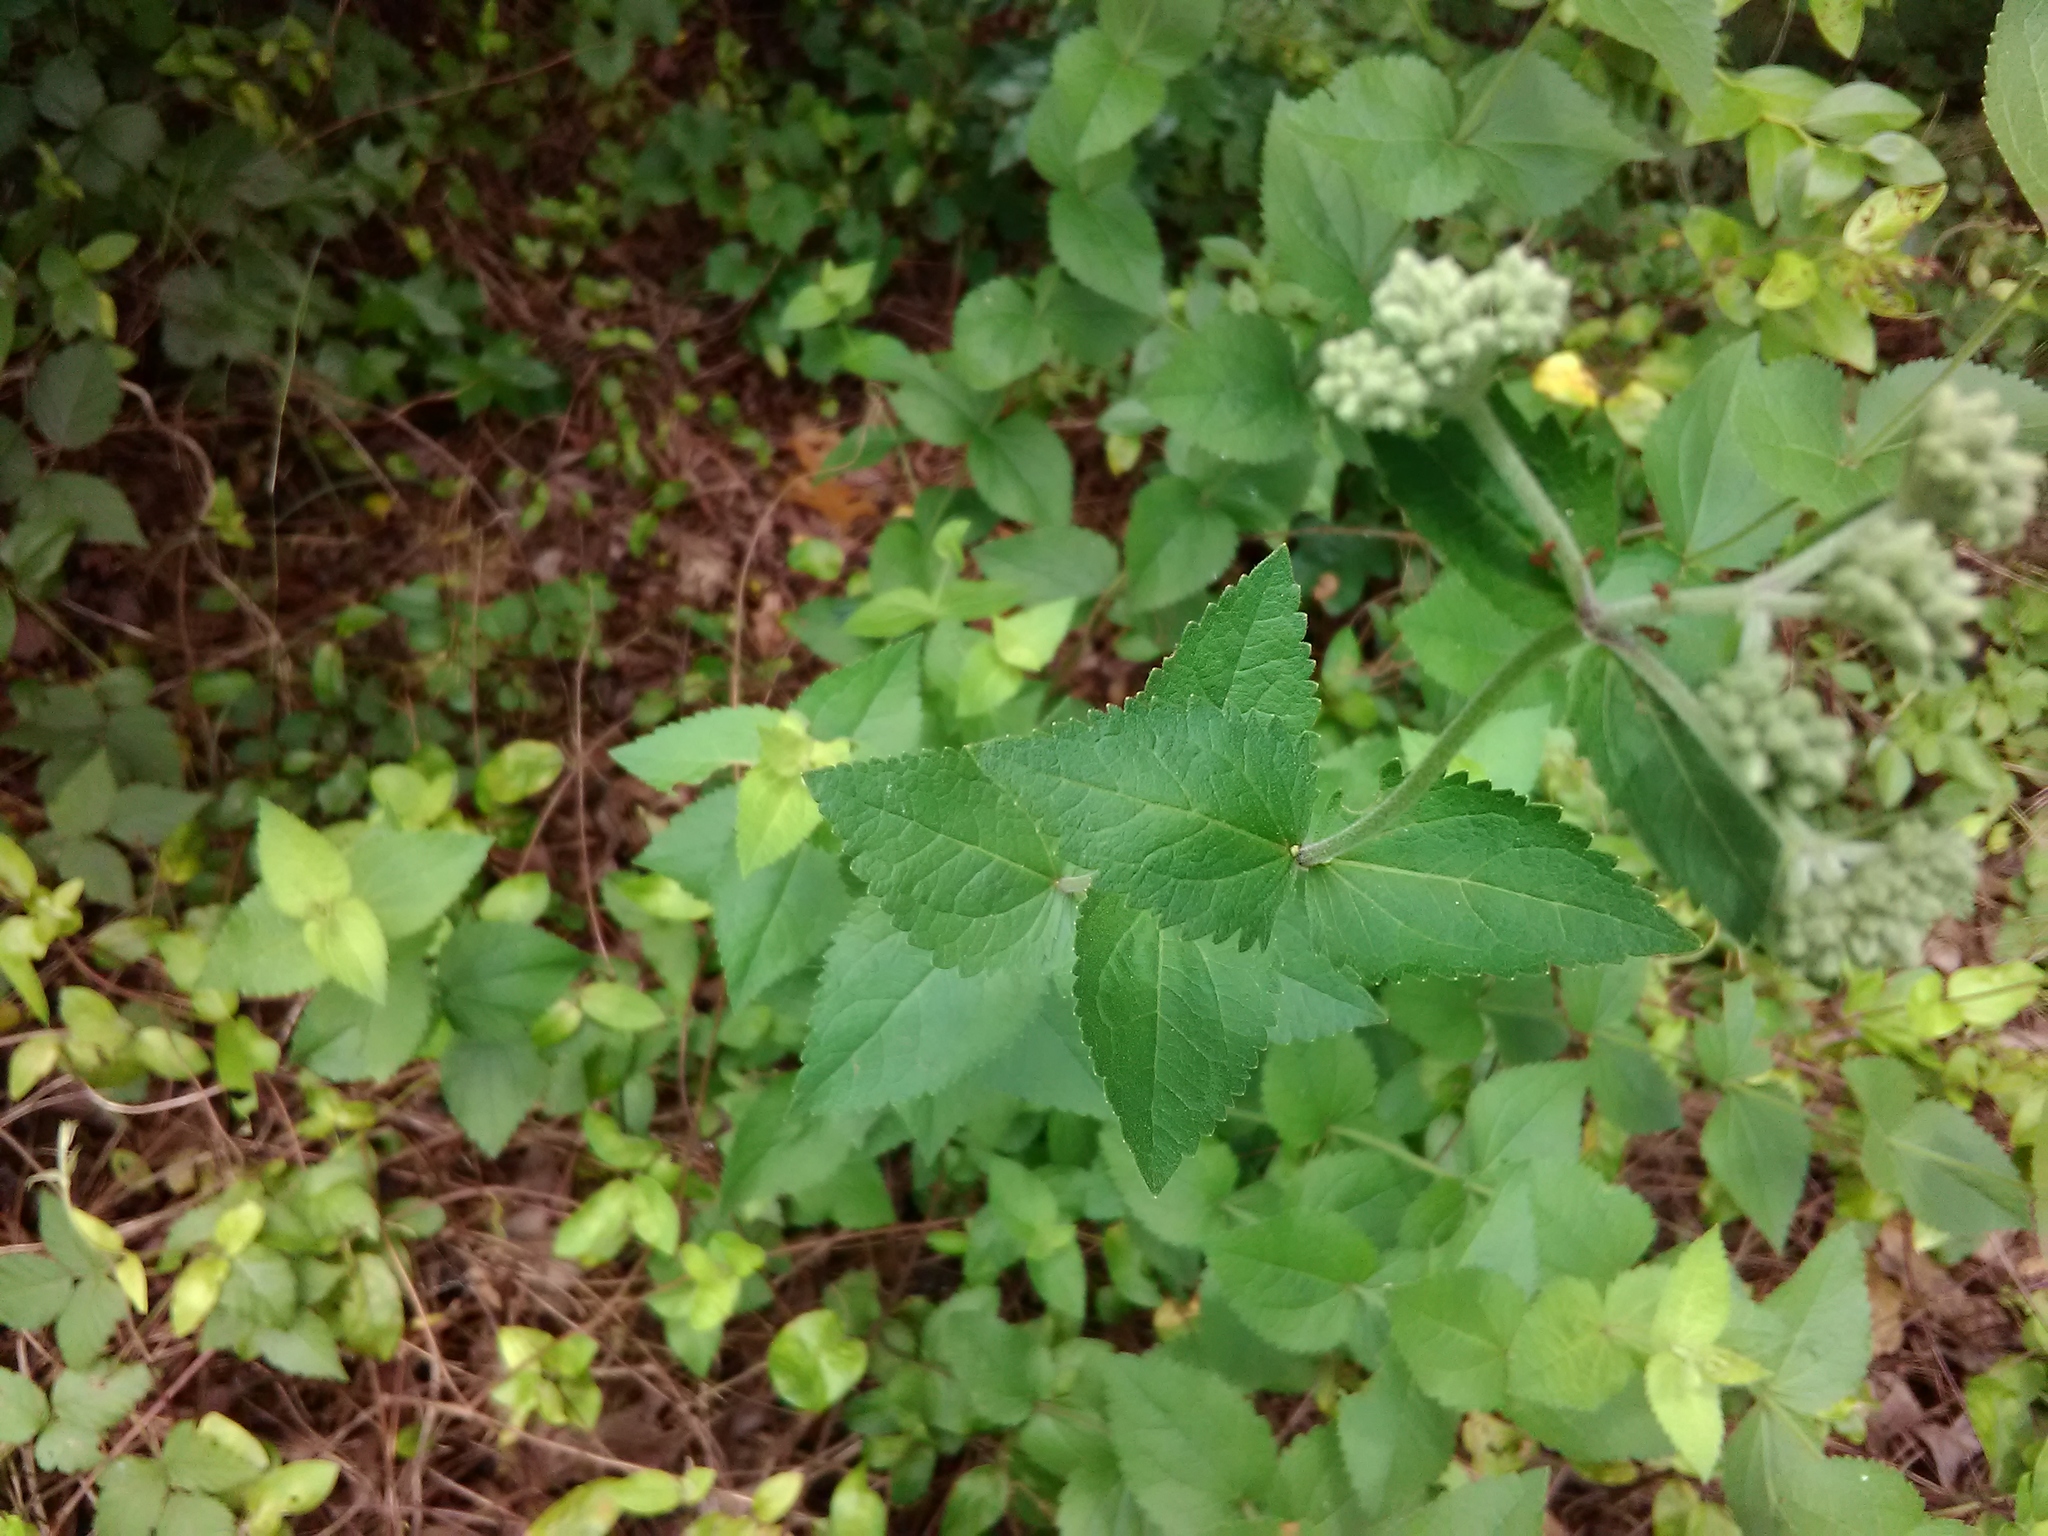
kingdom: Plantae
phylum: Tracheophyta
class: Magnoliopsida
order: Asterales
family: Asteraceae
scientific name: Asteraceae
